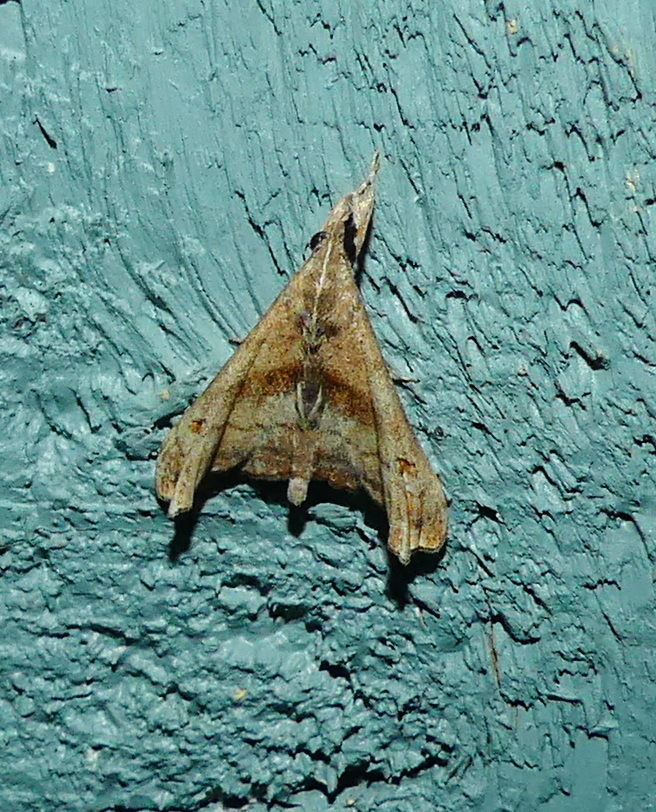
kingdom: Animalia
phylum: Arthropoda
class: Insecta
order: Lepidoptera
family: Erebidae
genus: Palthis
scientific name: Palthis angulalis
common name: Dark-spotted palthis moth
